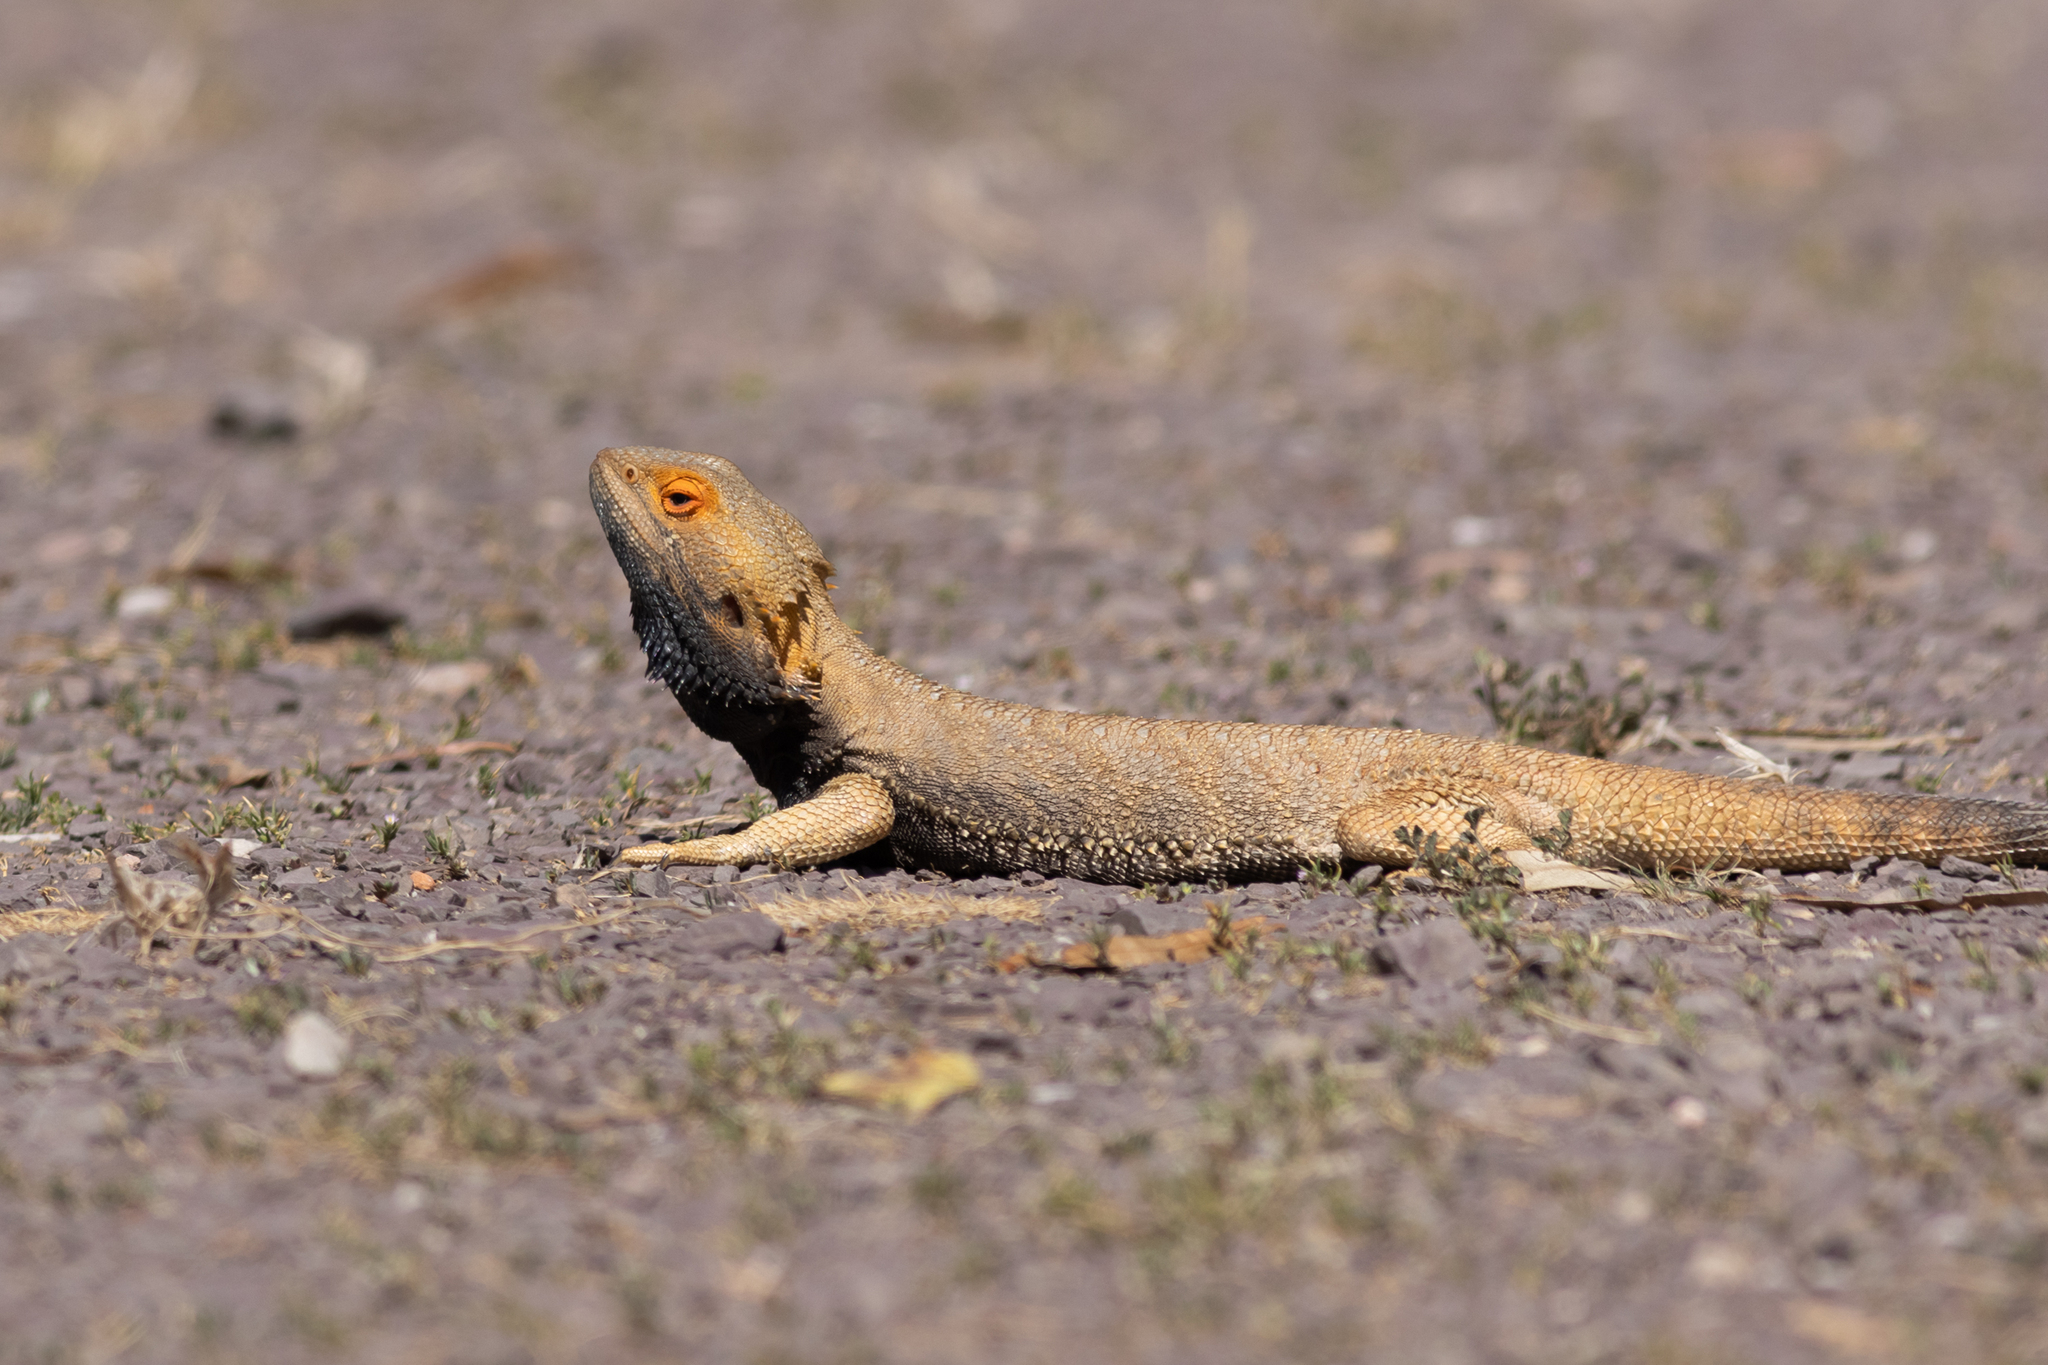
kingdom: Animalia
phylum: Chordata
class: Squamata
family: Agamidae
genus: Pogona
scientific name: Pogona vitticeps
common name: Central bearded dragon
